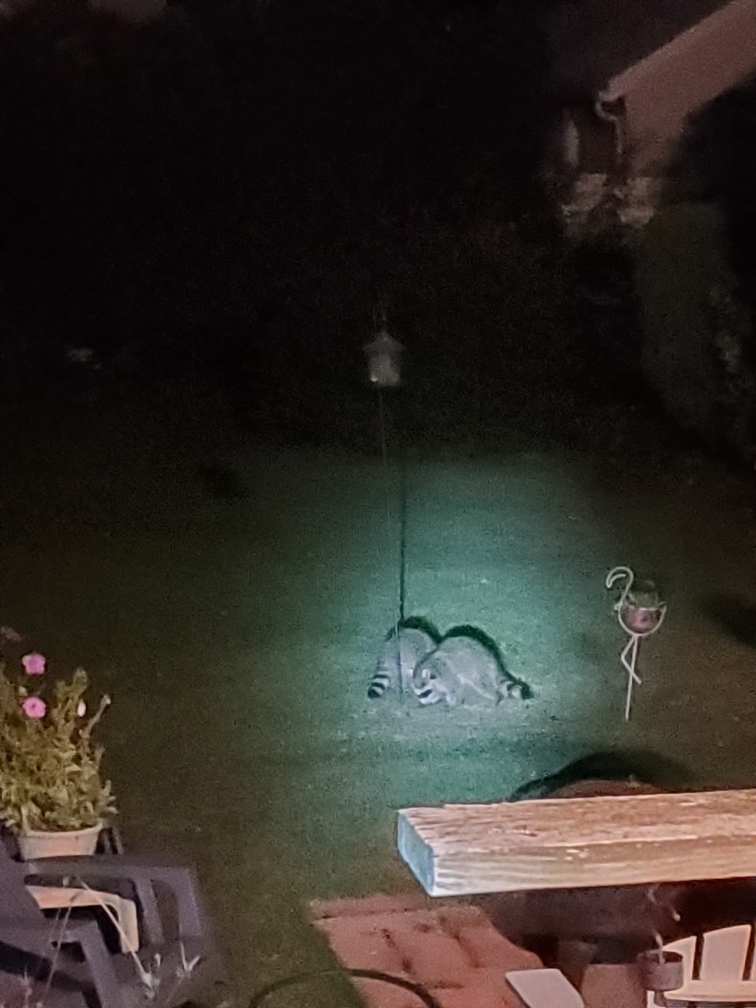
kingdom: Animalia
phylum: Chordata
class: Mammalia
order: Carnivora
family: Procyonidae
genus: Procyon
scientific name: Procyon lotor
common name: Raccoon
